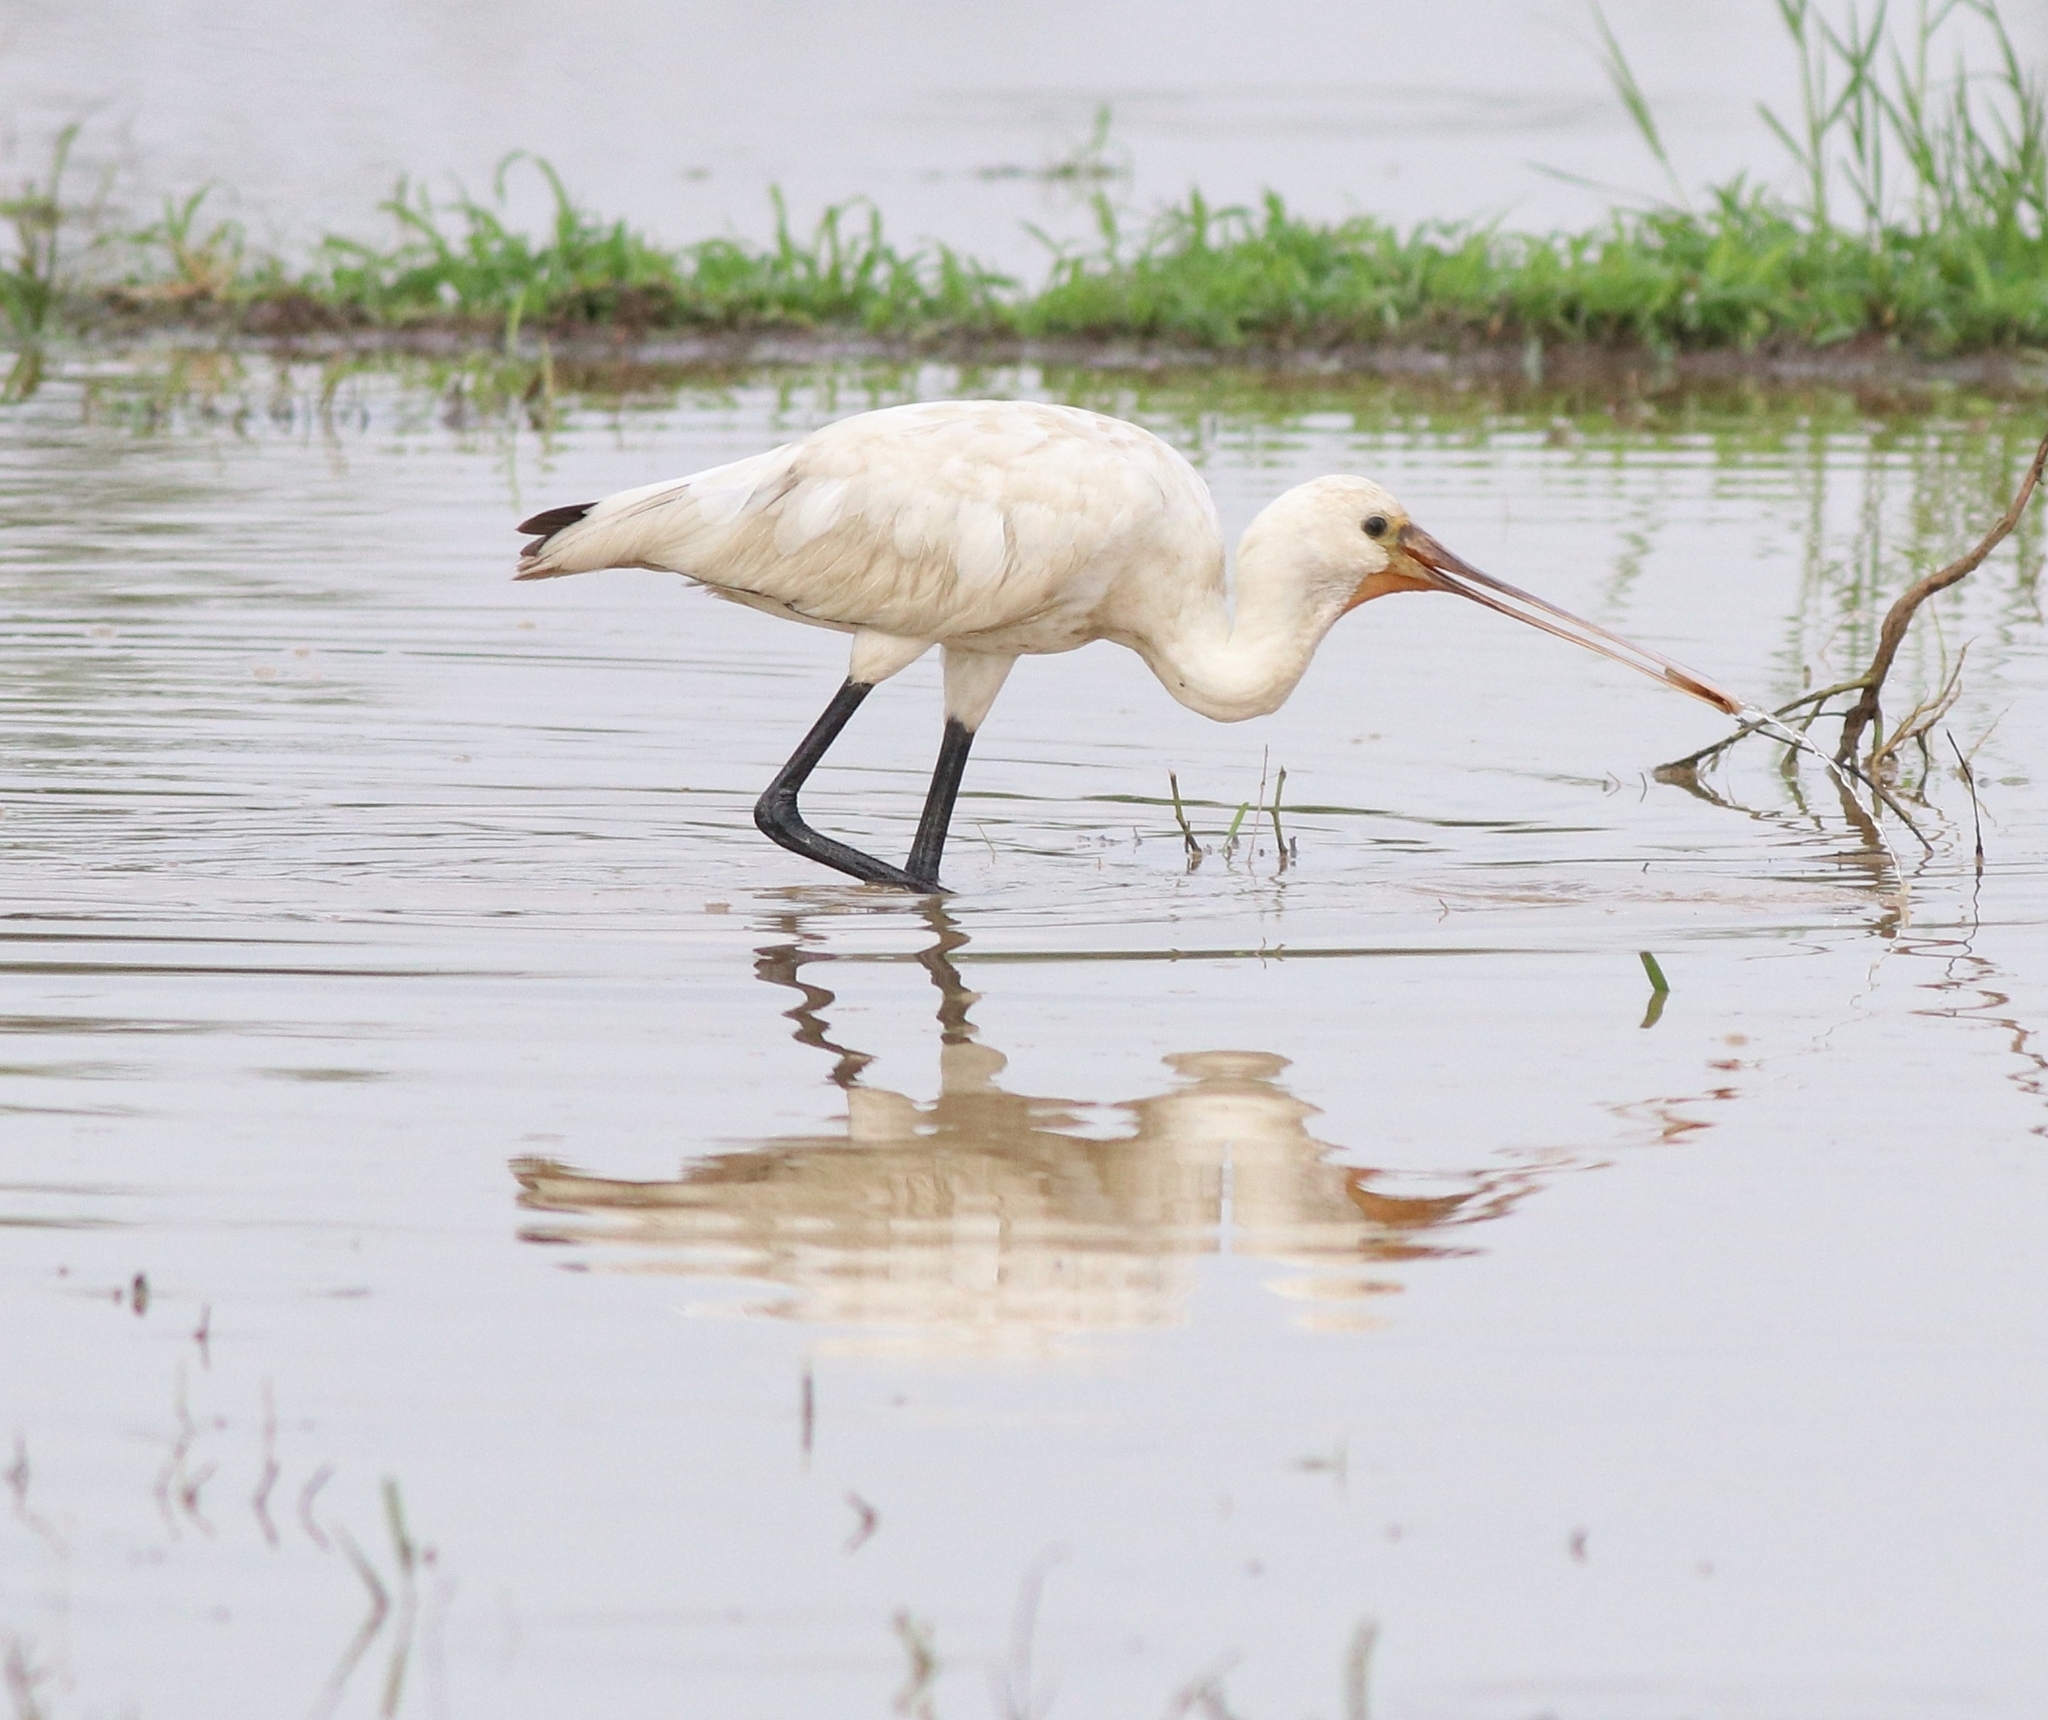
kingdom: Animalia
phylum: Chordata
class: Aves
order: Pelecaniformes
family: Threskiornithidae
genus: Platalea
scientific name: Platalea leucorodia
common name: Eurasian spoonbill
